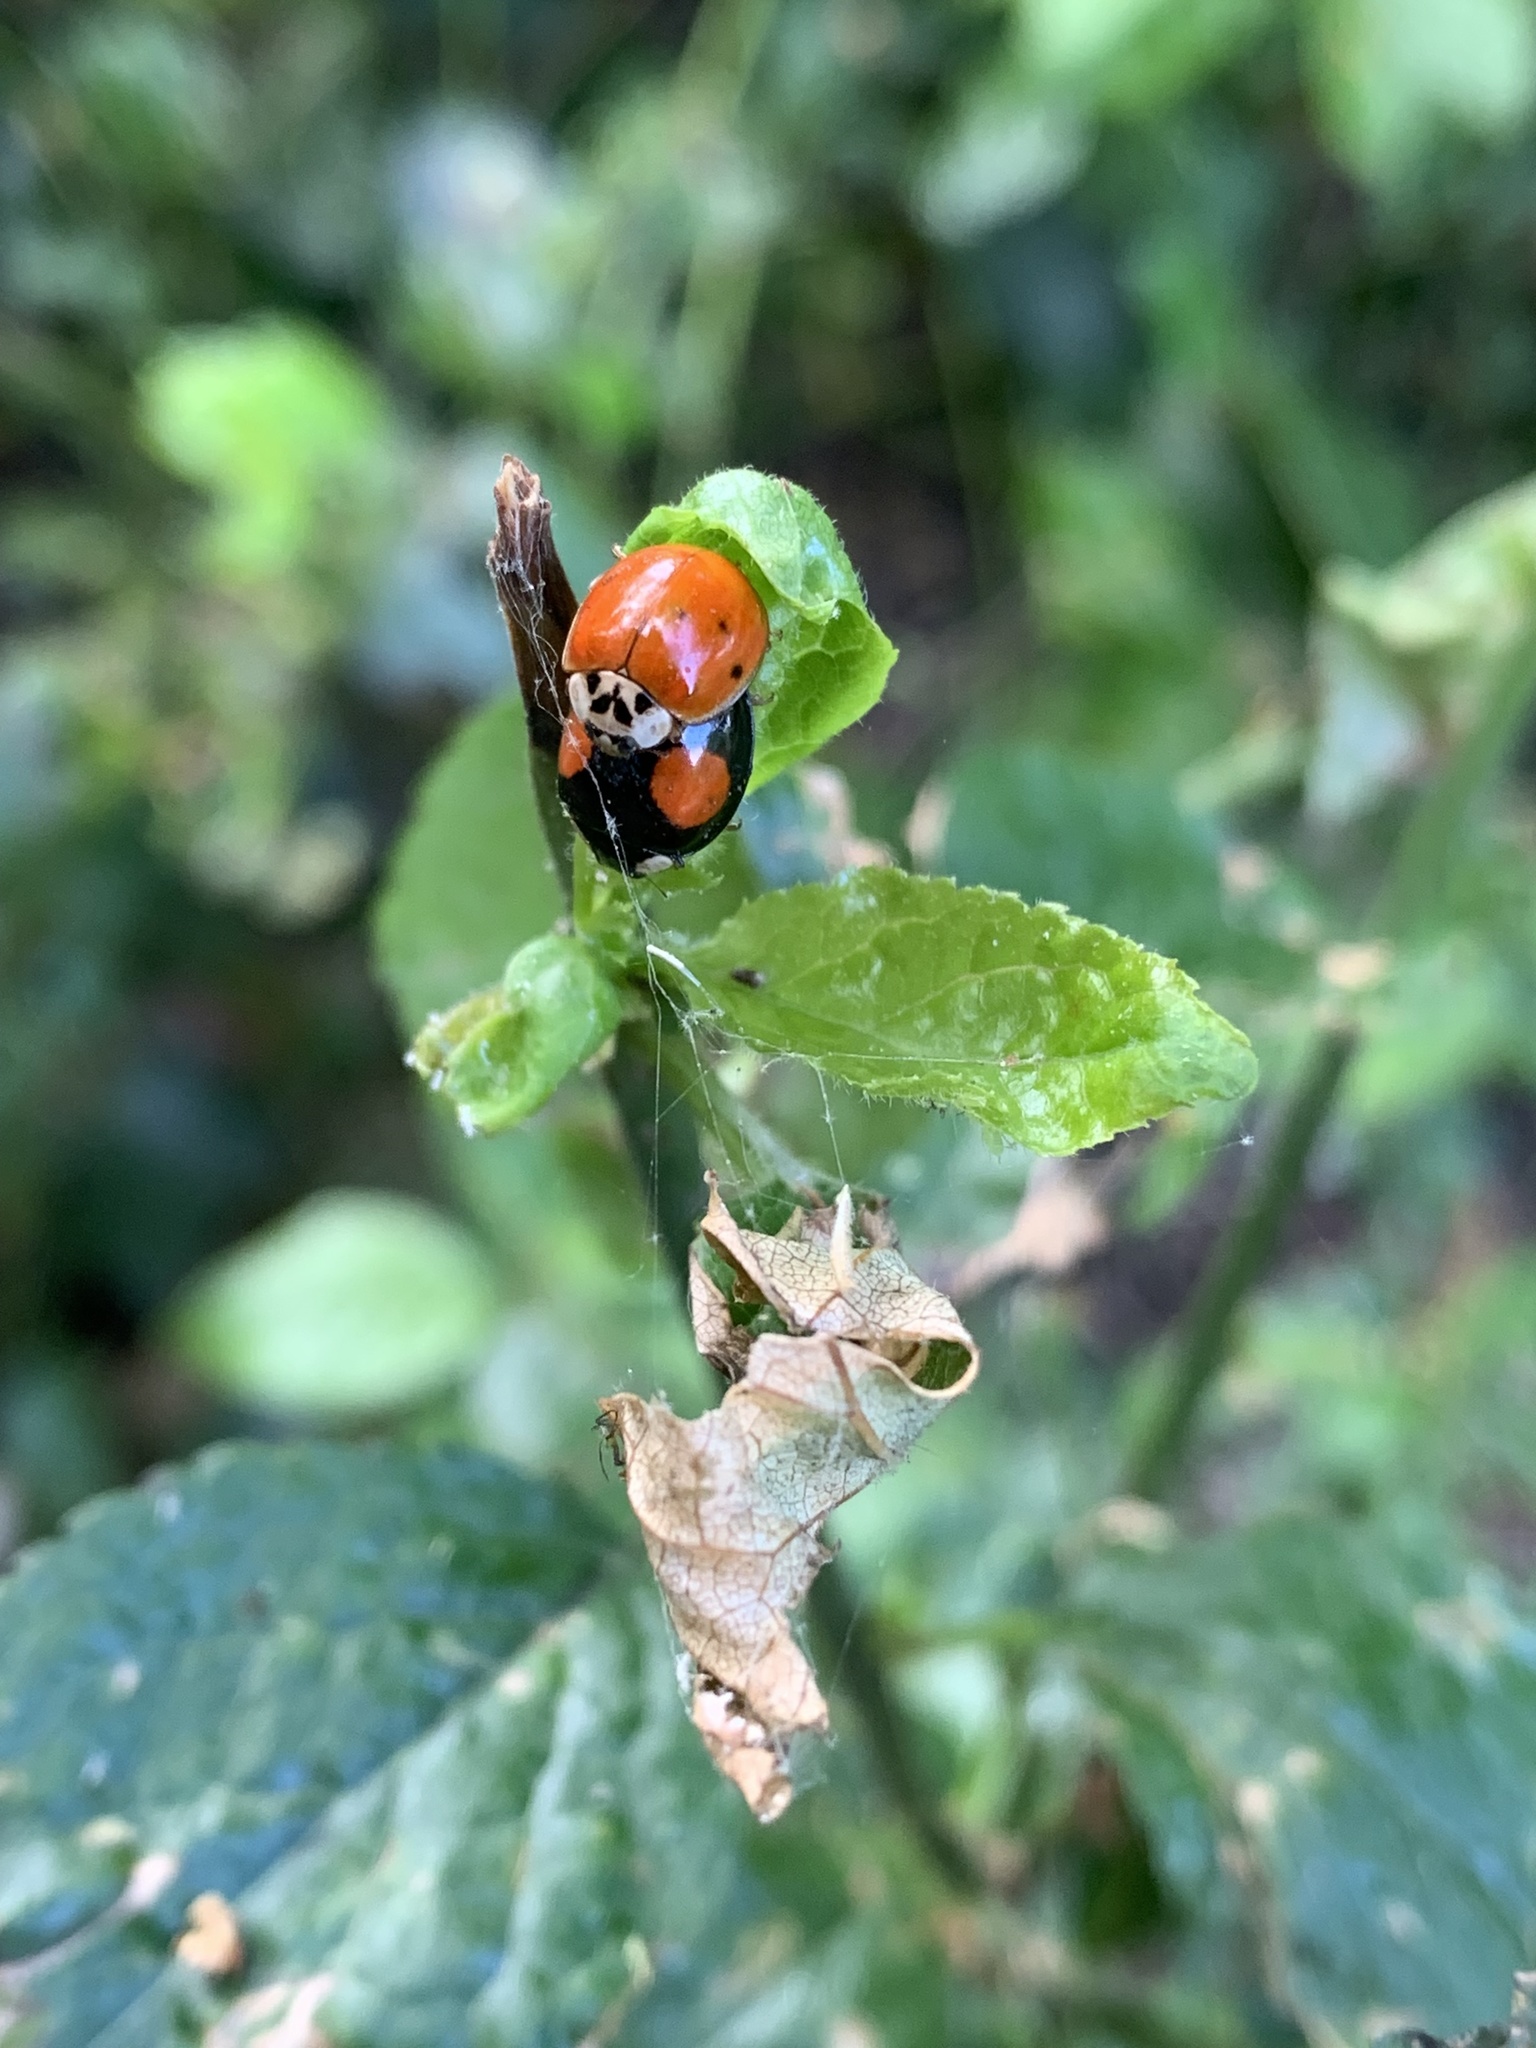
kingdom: Animalia
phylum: Arthropoda
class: Insecta
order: Coleoptera
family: Coccinellidae
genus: Harmonia
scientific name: Harmonia axyridis
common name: Harlequin ladybird
